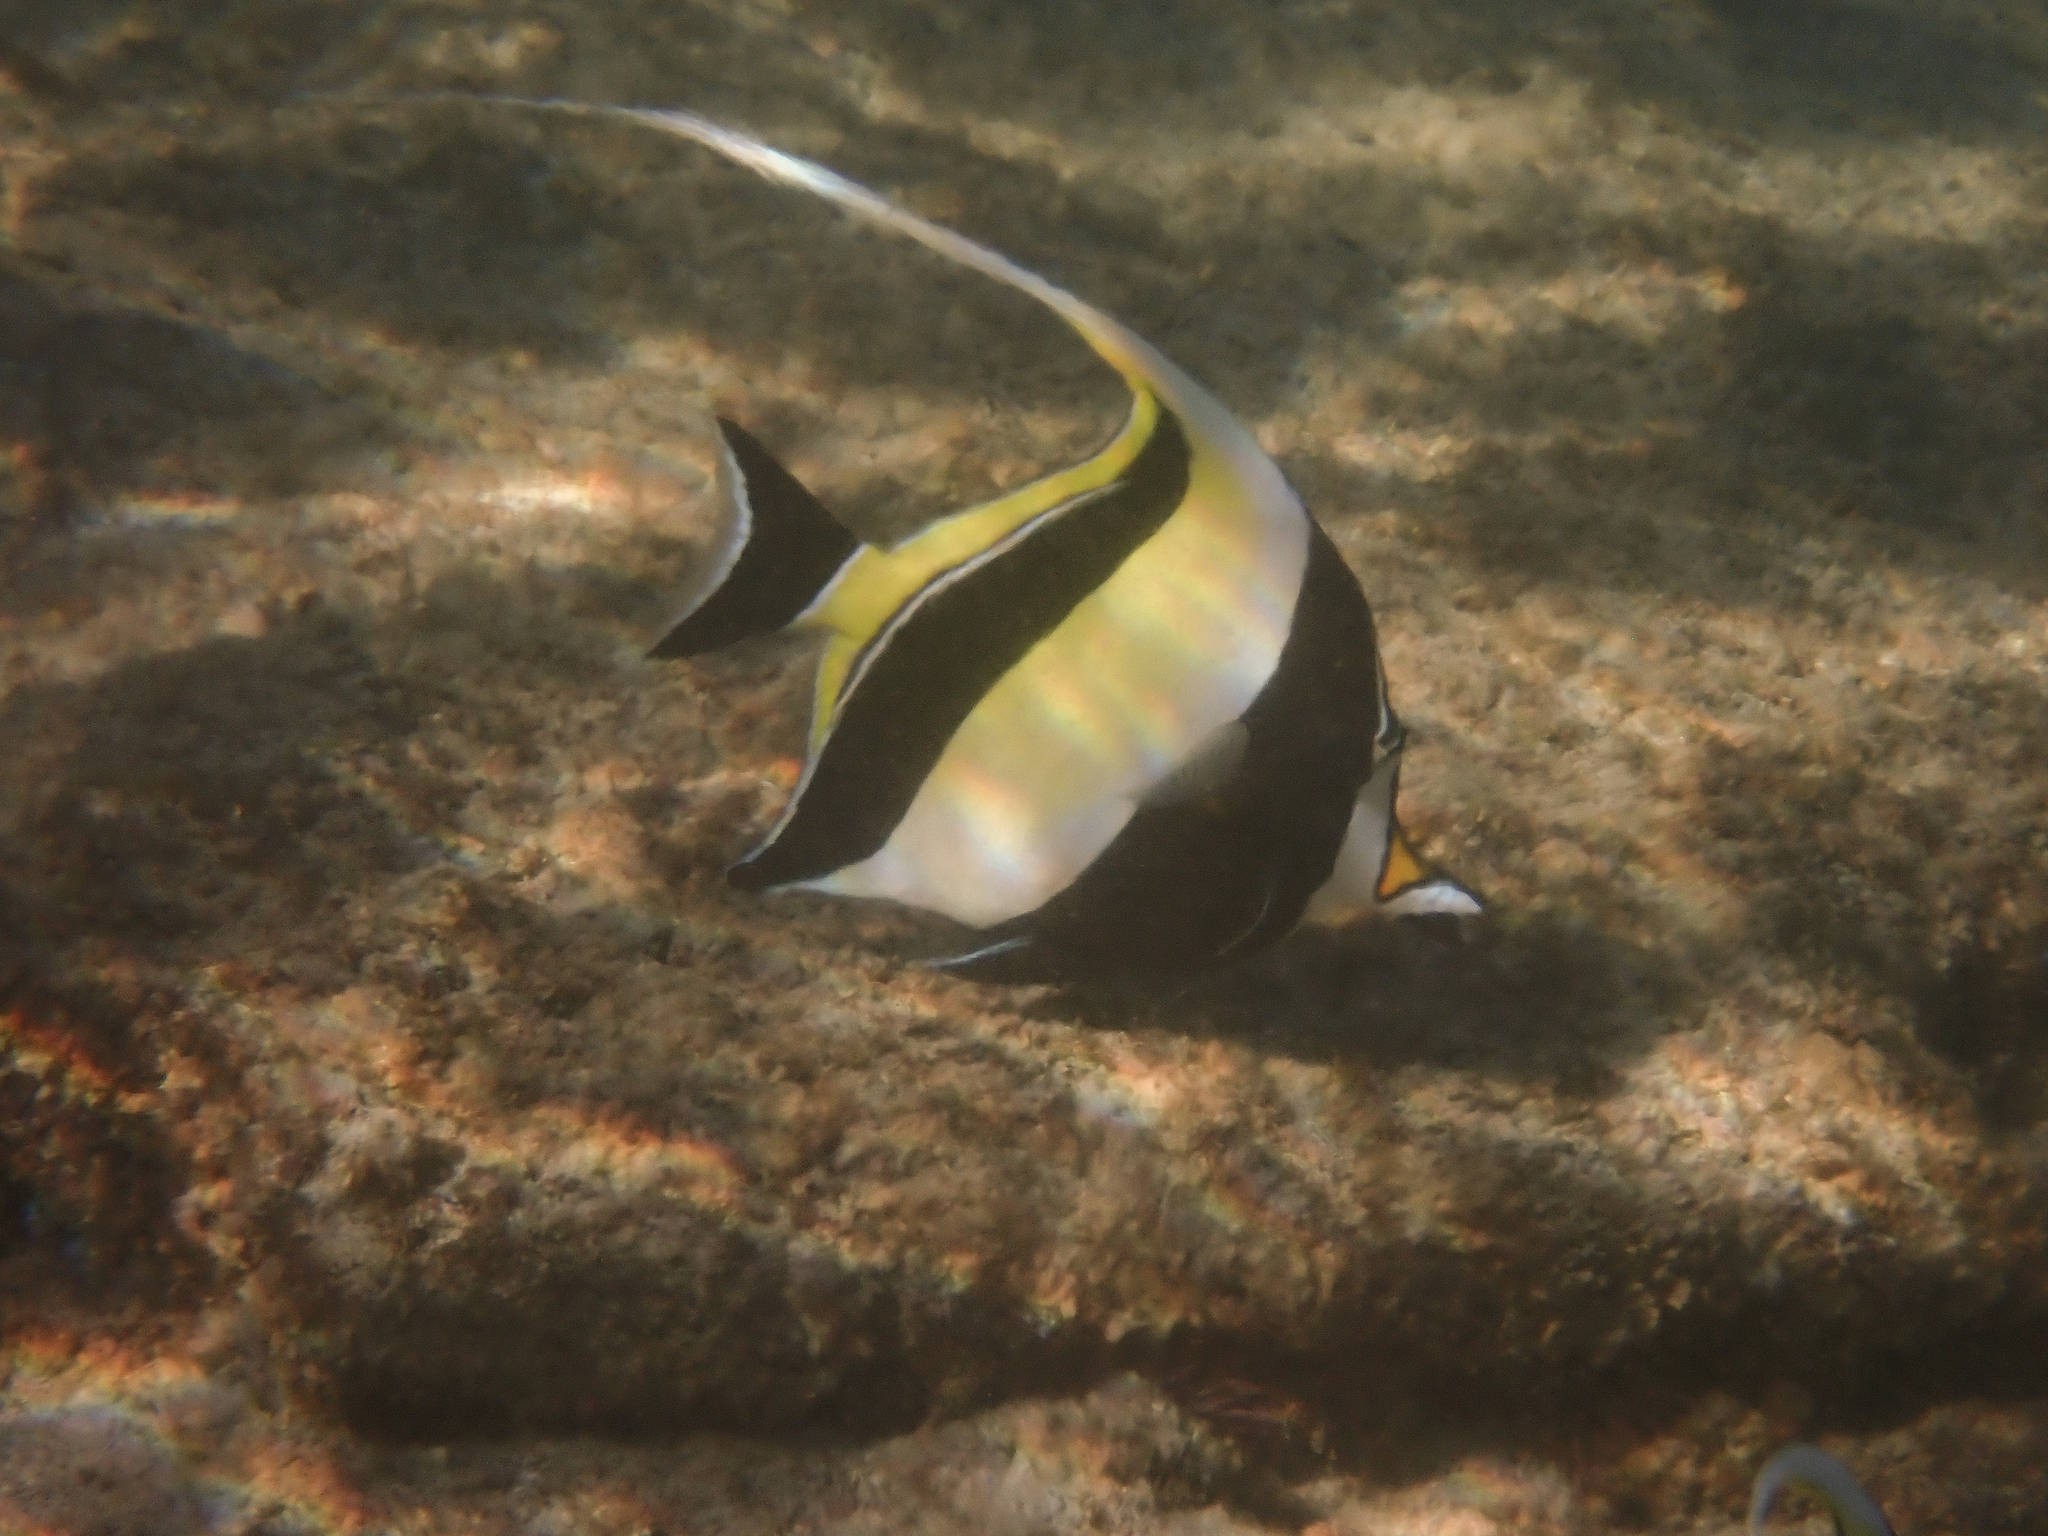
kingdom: Animalia
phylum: Chordata
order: Perciformes
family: Zanclidae
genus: Zanclus
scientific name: Zanclus cornutus
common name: Moorish idol
